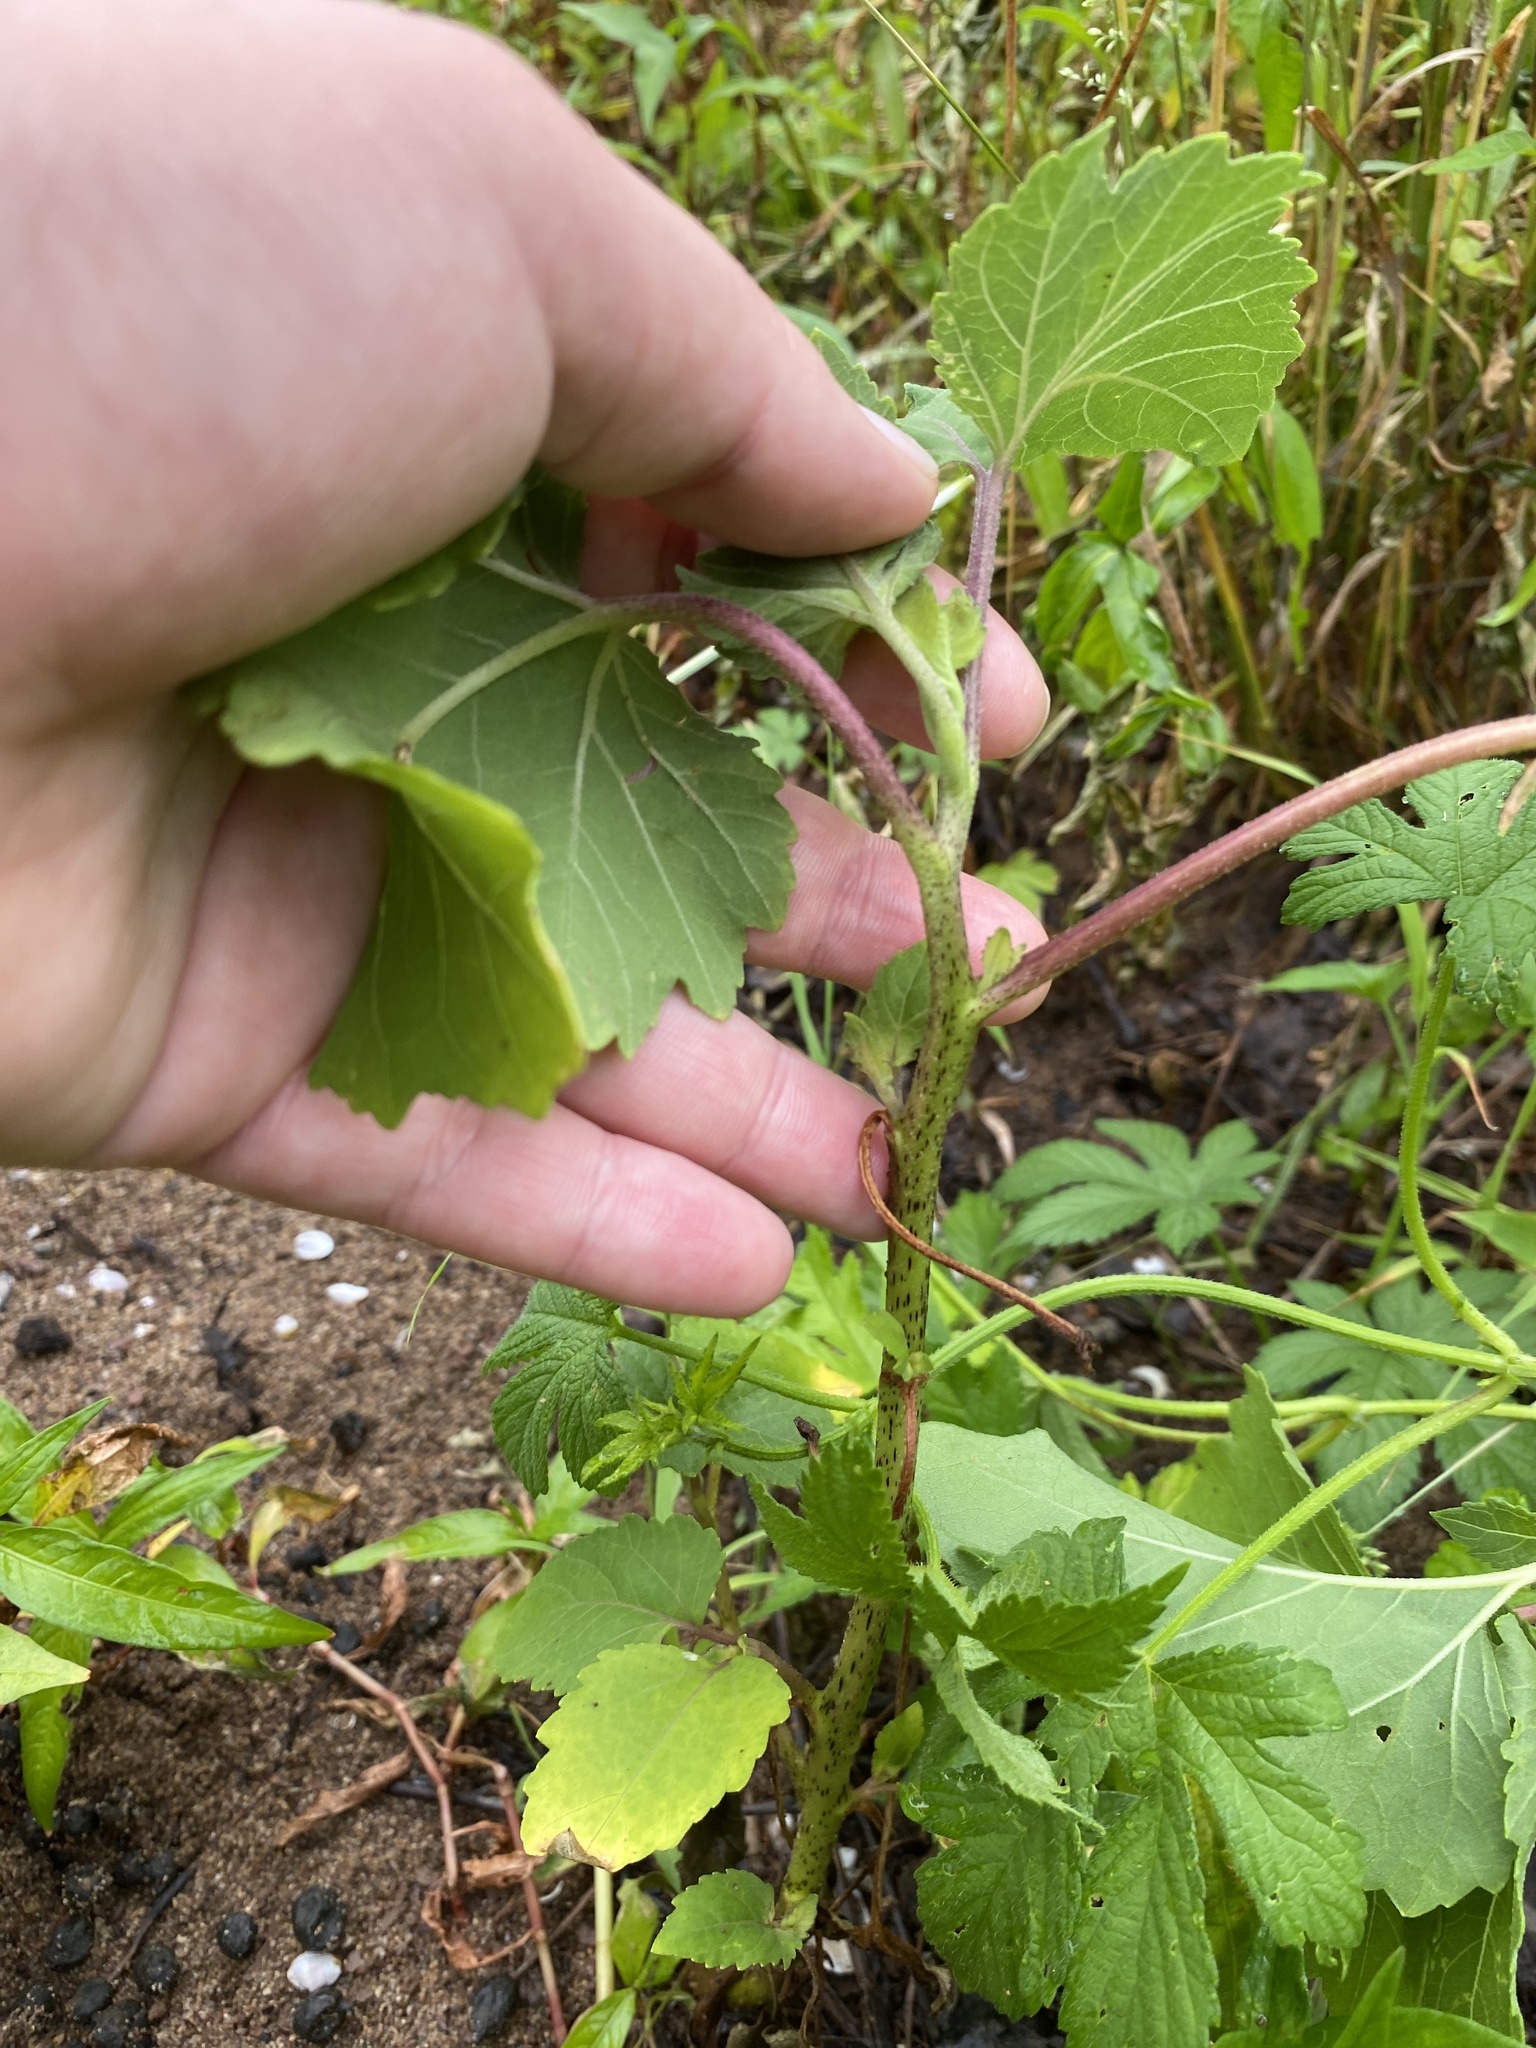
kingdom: Plantae
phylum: Tracheophyta
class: Magnoliopsida
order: Asterales
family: Asteraceae
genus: Xanthium
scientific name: Xanthium strumarium
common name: Rough cocklebur
